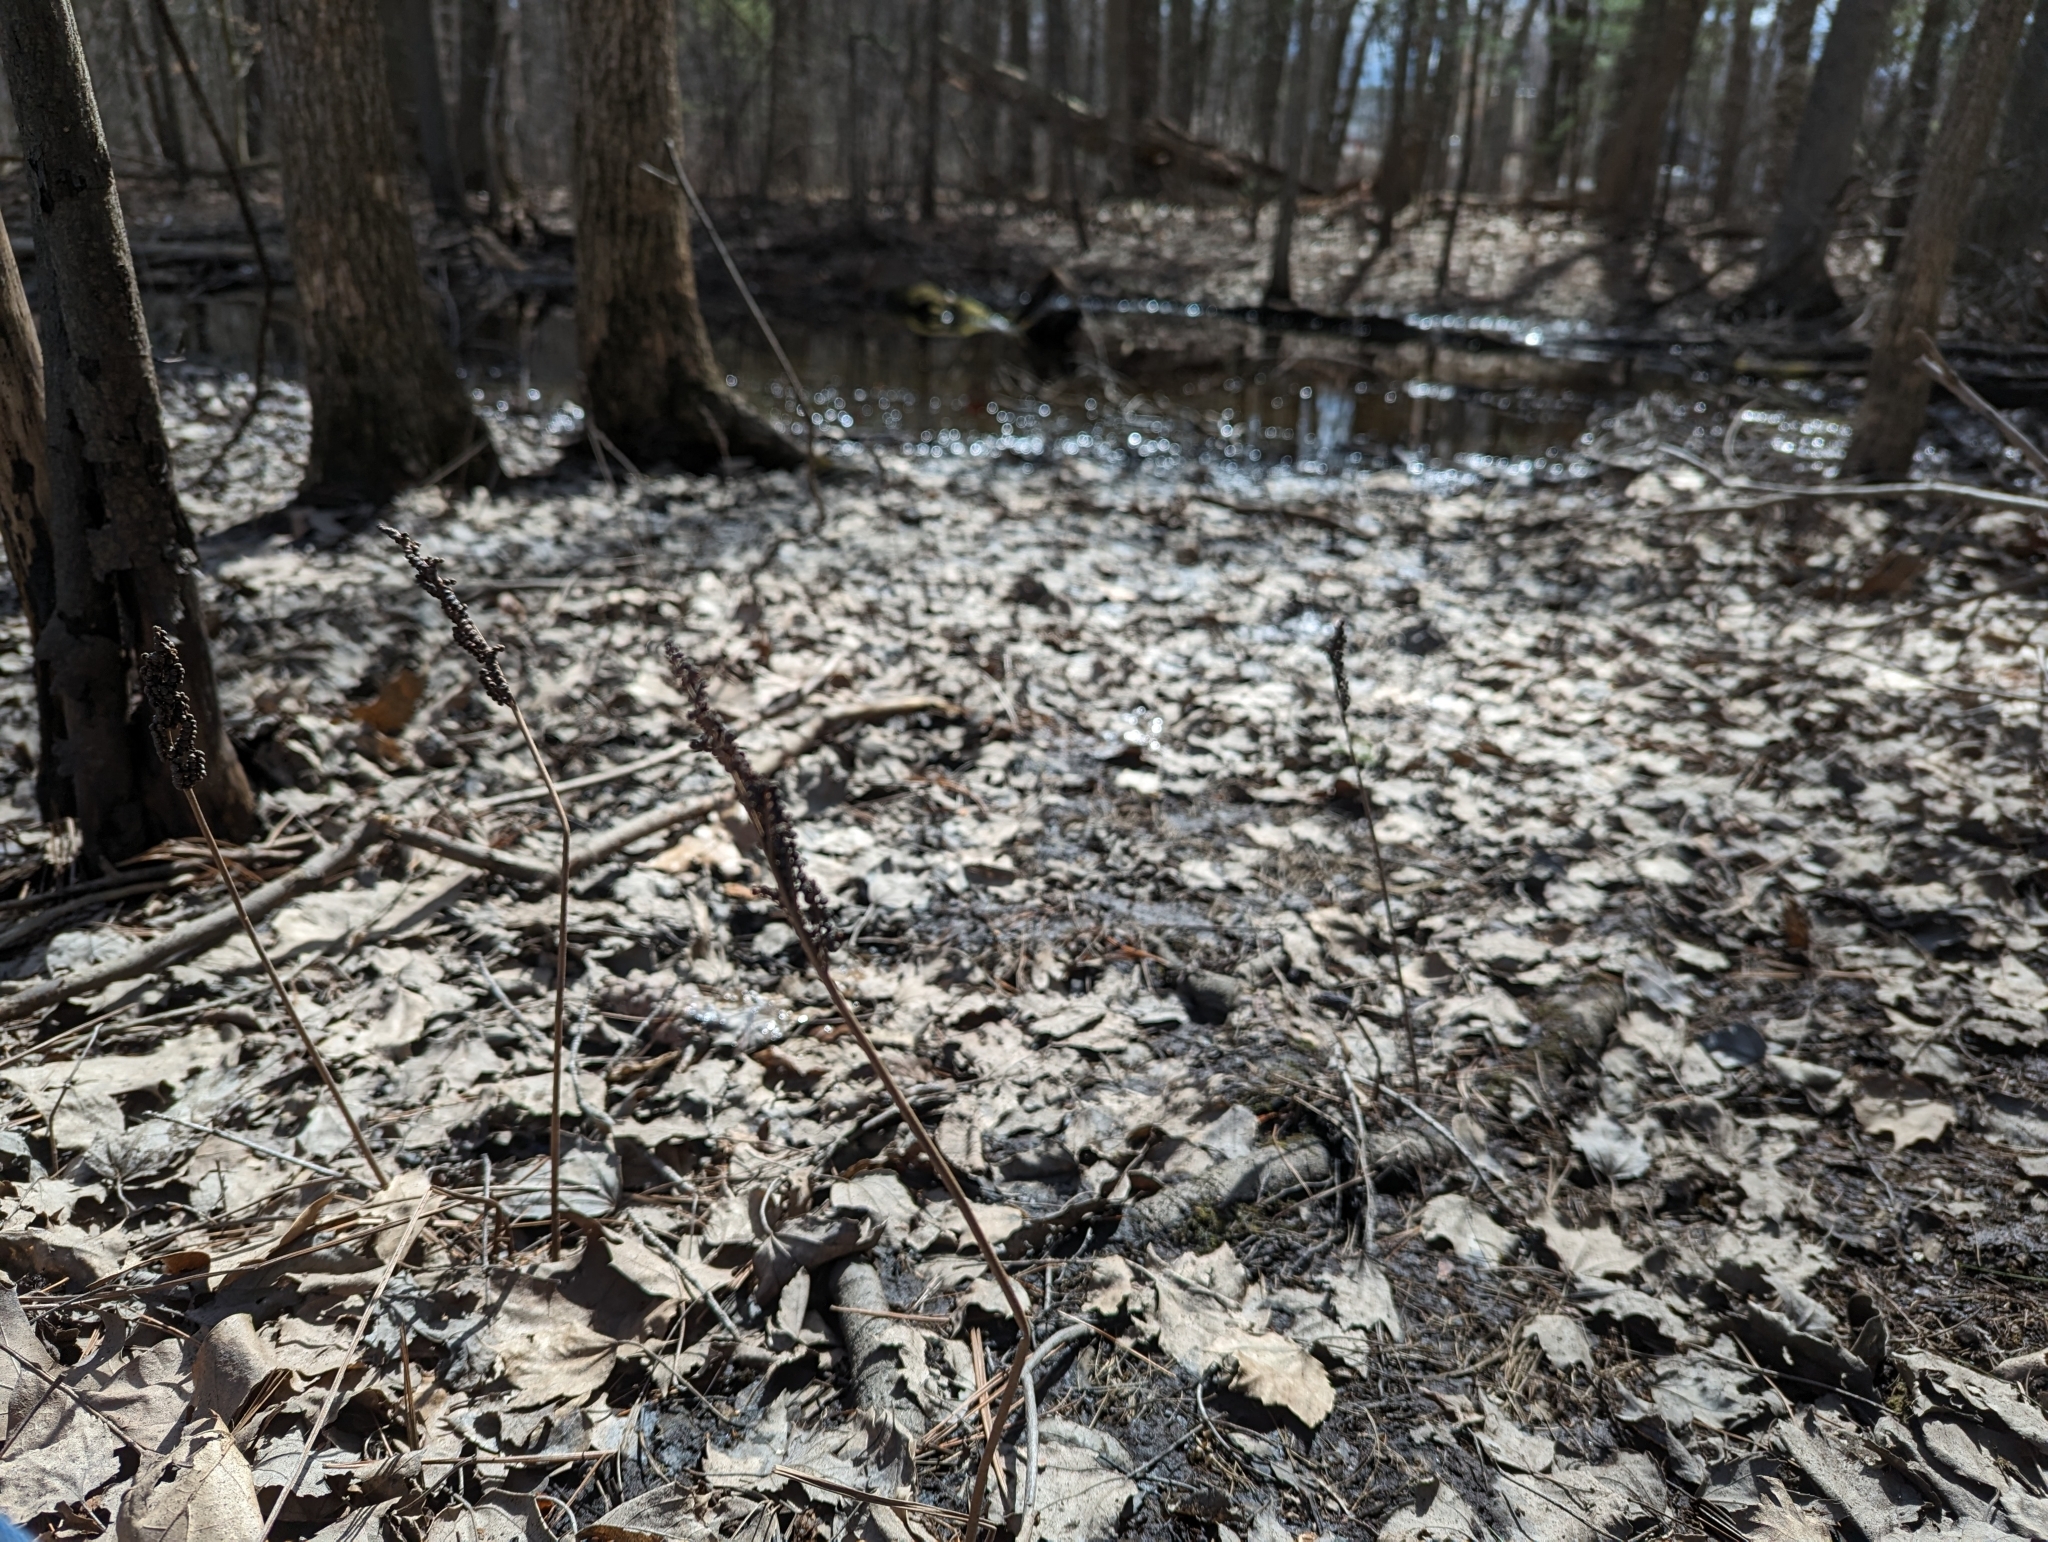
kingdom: Plantae
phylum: Tracheophyta
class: Polypodiopsida
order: Polypodiales
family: Onocleaceae
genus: Onoclea
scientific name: Onoclea sensibilis
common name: Sensitive fern
